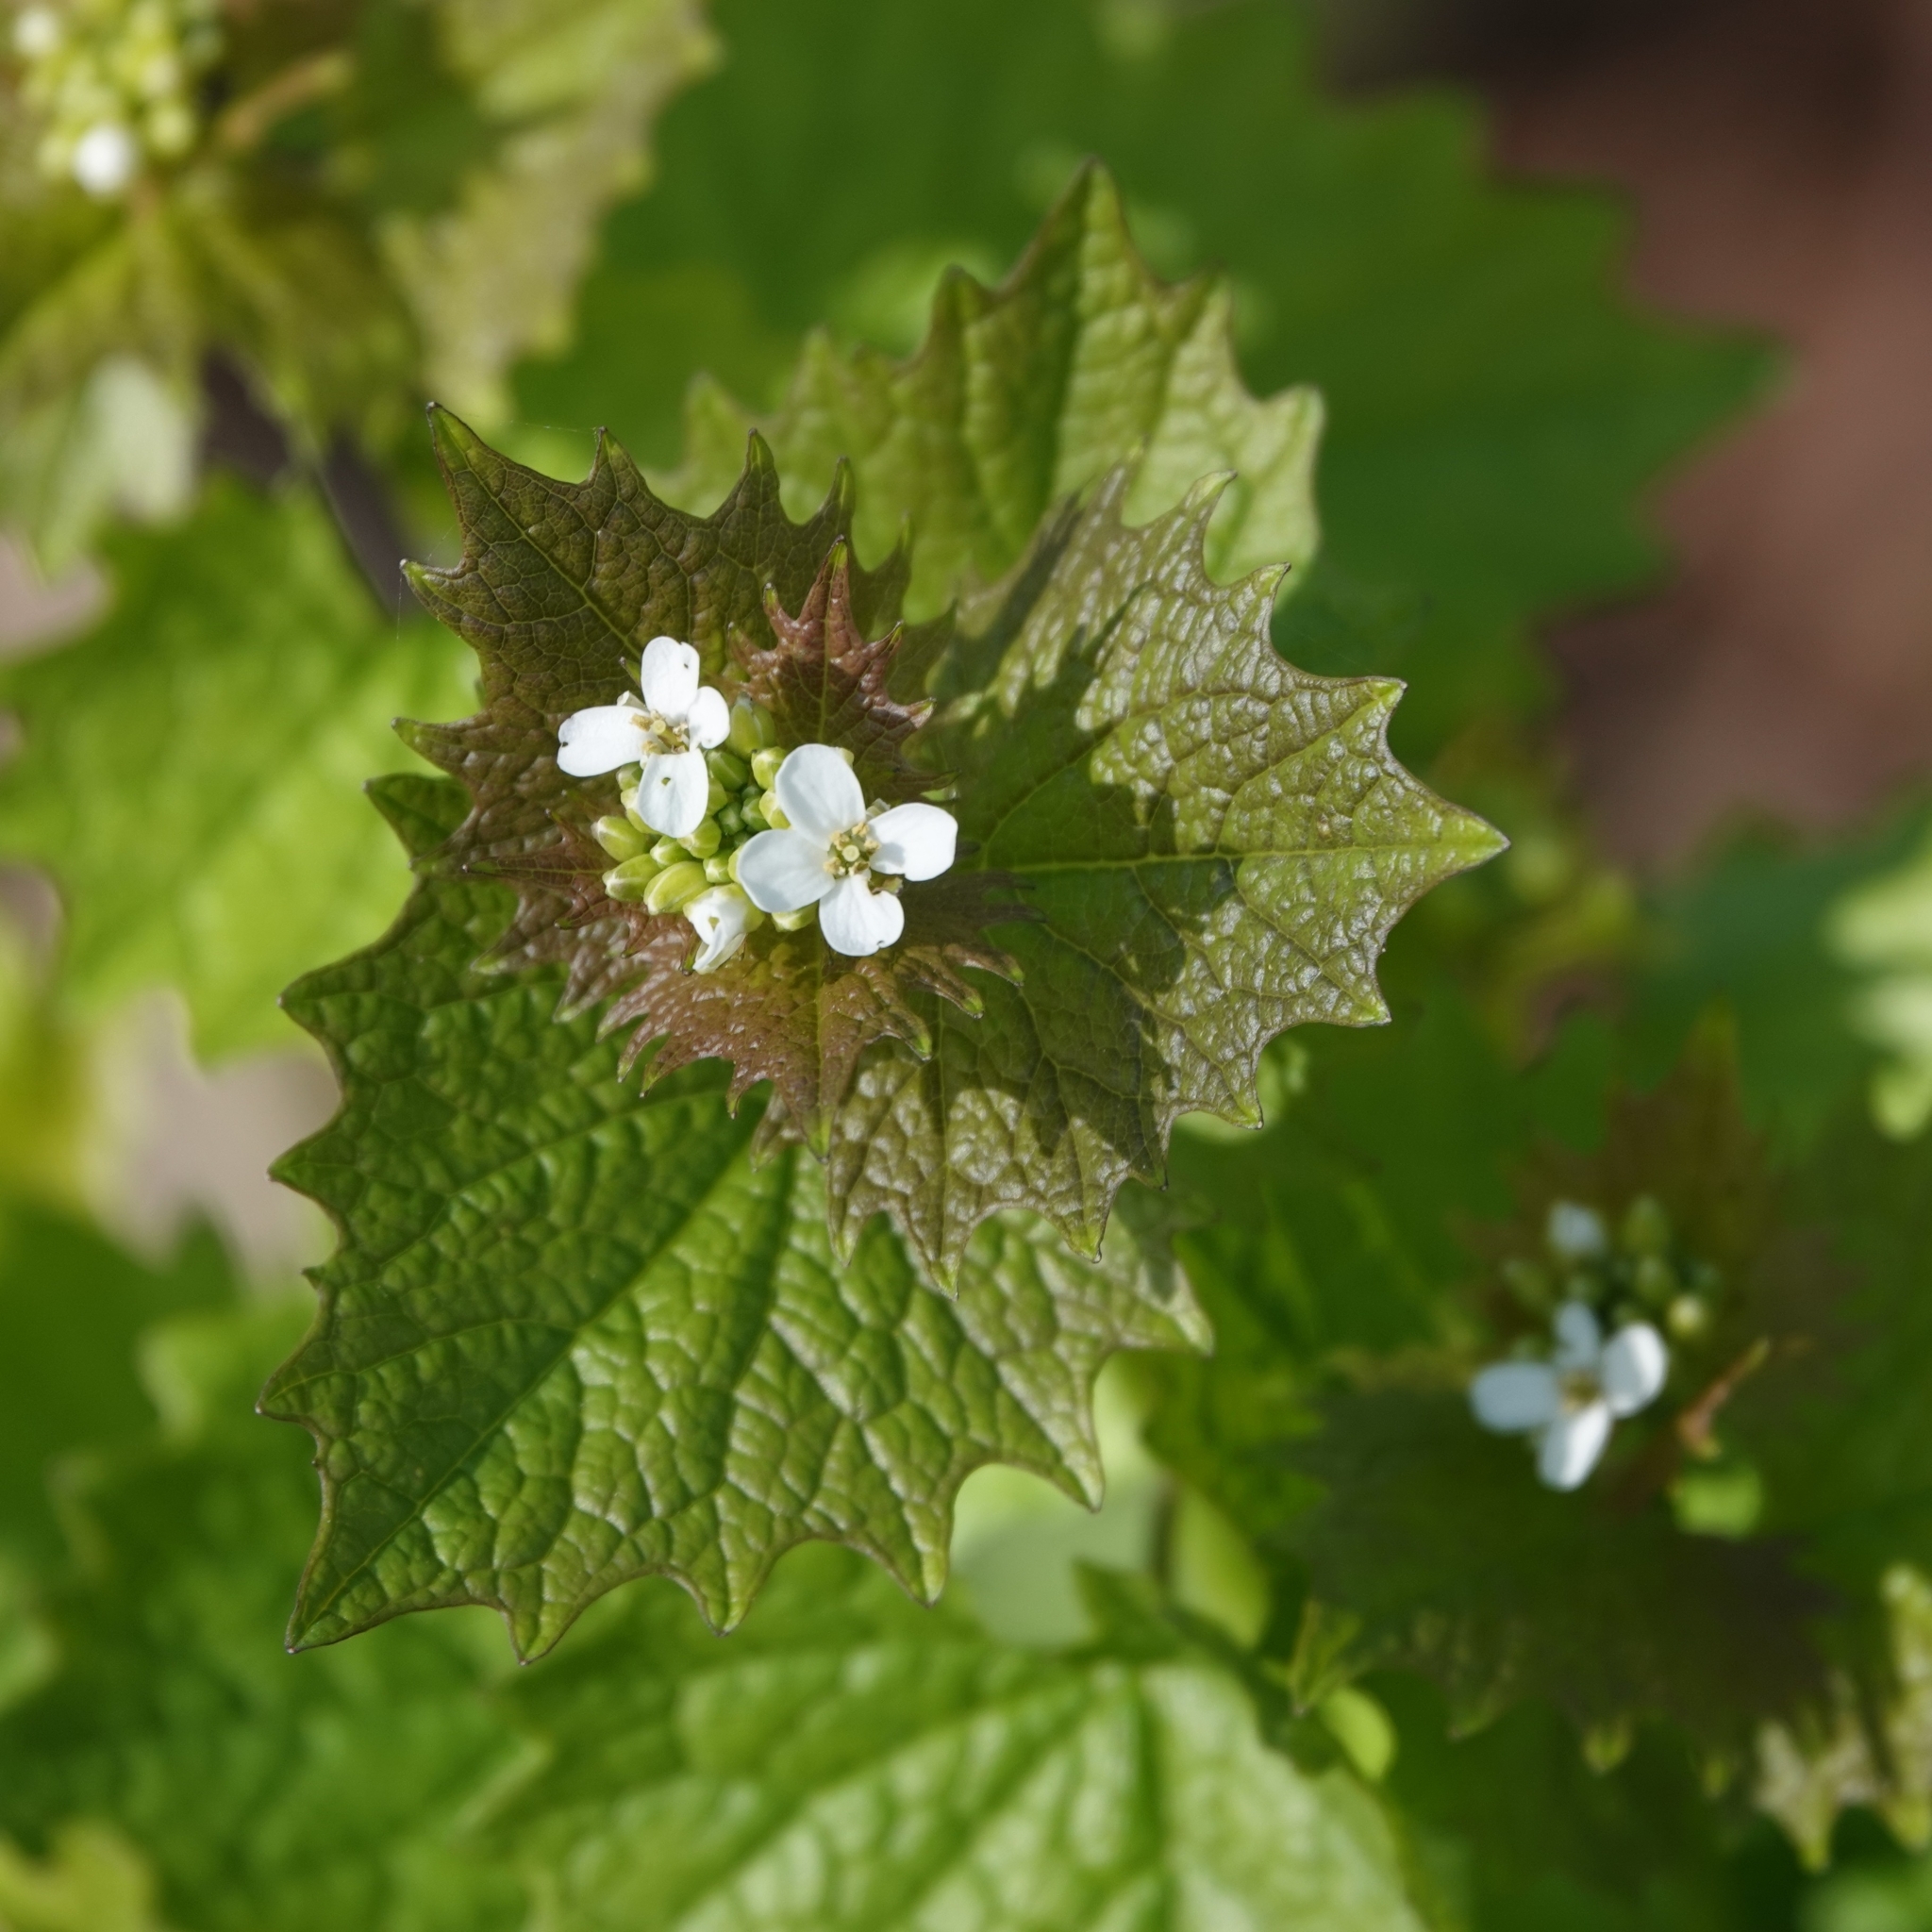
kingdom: Plantae
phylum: Tracheophyta
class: Magnoliopsida
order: Brassicales
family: Brassicaceae
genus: Alliaria
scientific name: Alliaria petiolata
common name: Garlic mustard
